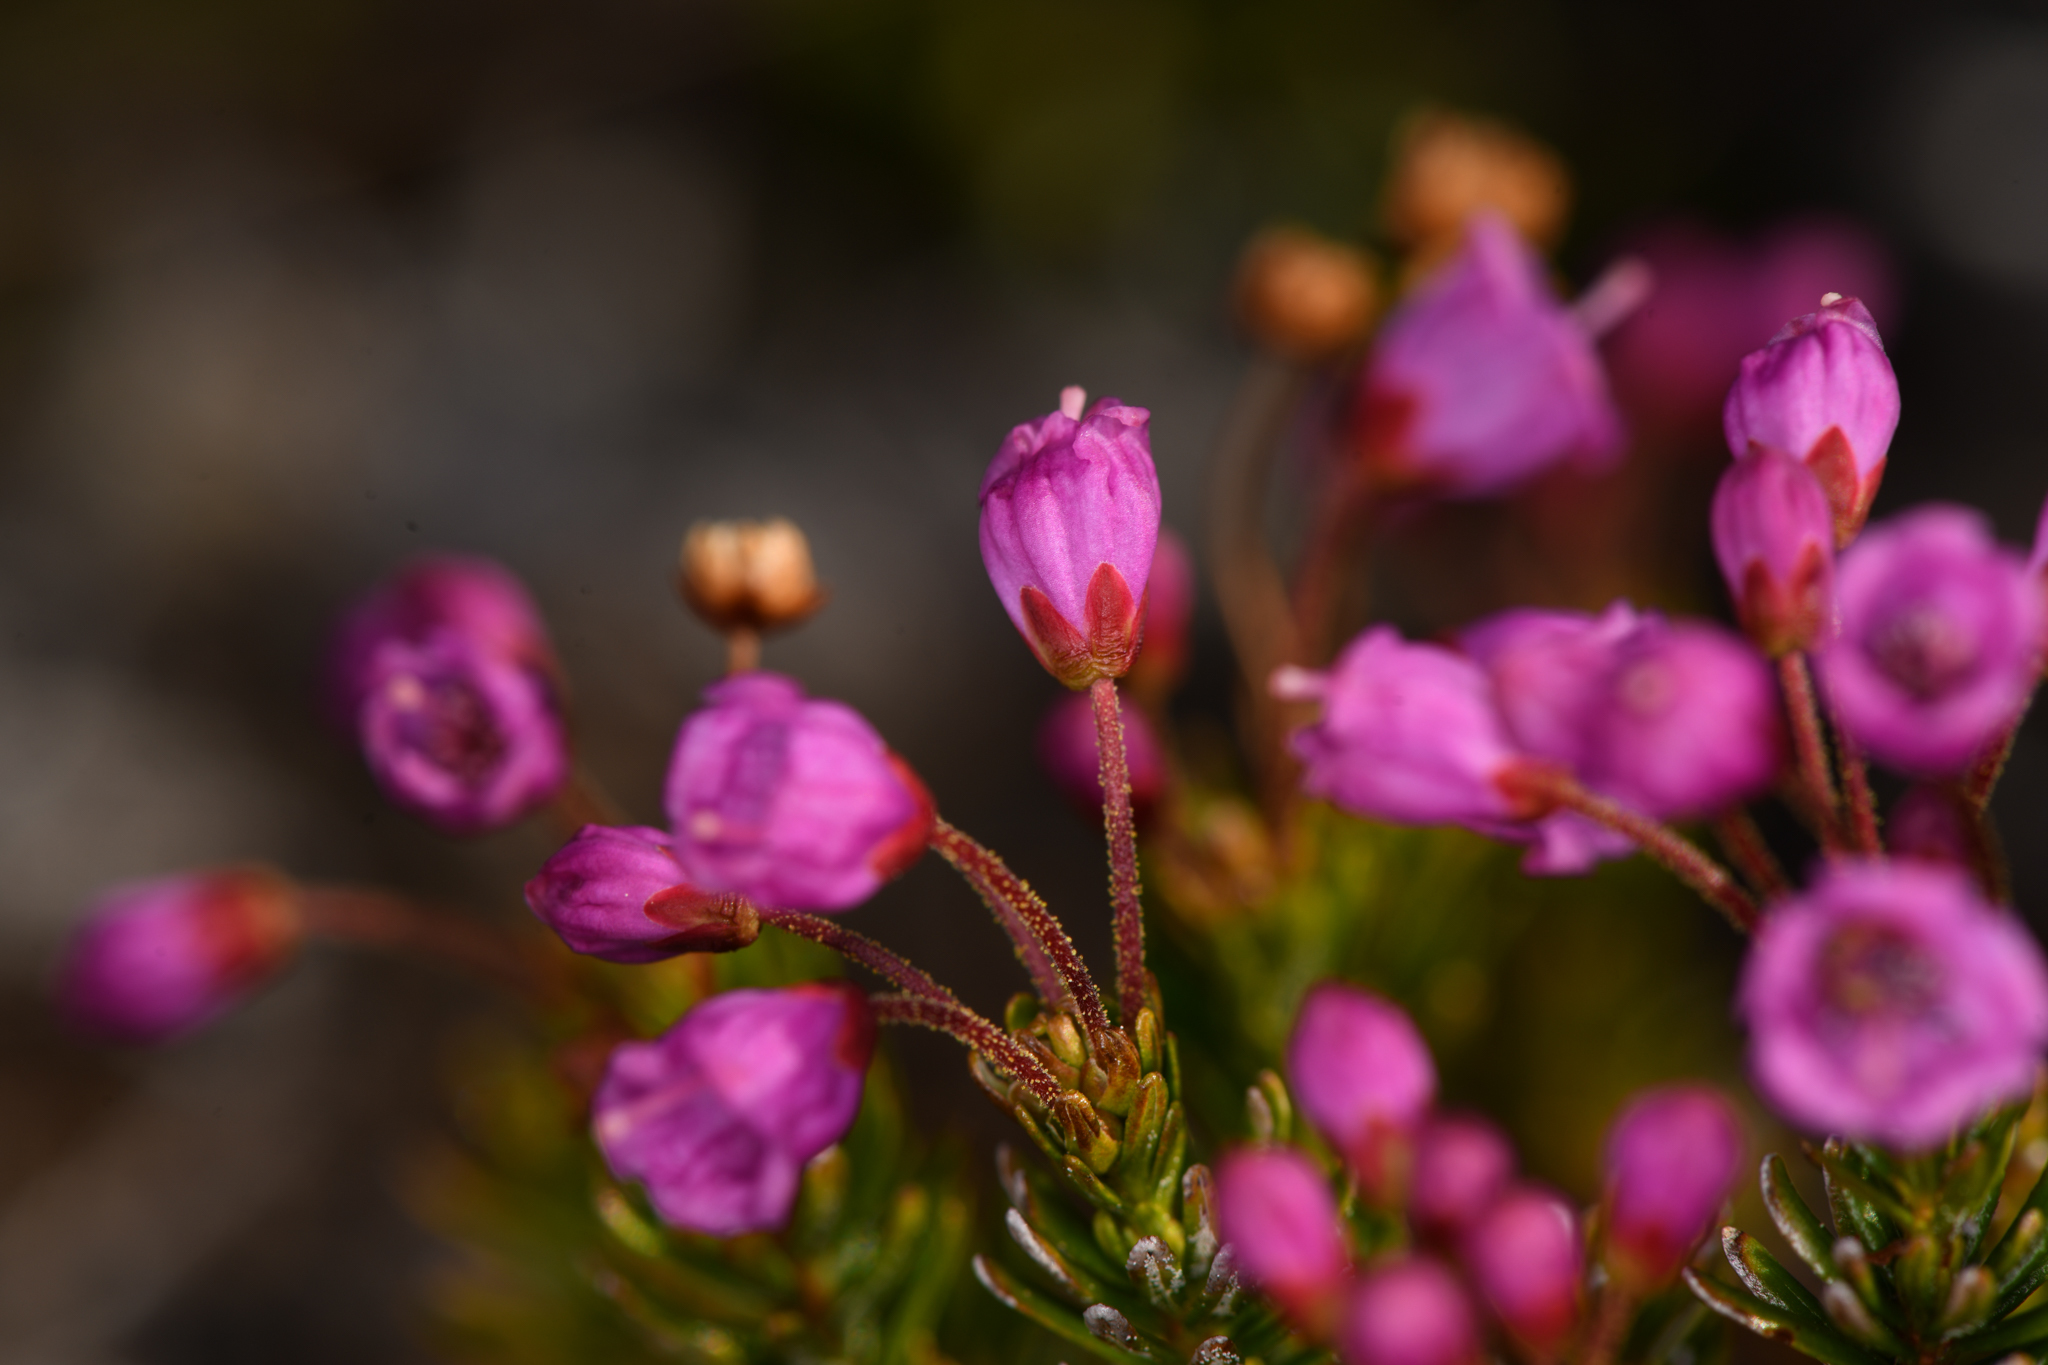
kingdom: Plantae
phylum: Tracheophyta
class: Magnoliopsida
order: Ericales
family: Ericaceae
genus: Phyllodoce
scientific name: Phyllodoce empetriformis
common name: Pink mountain heather
